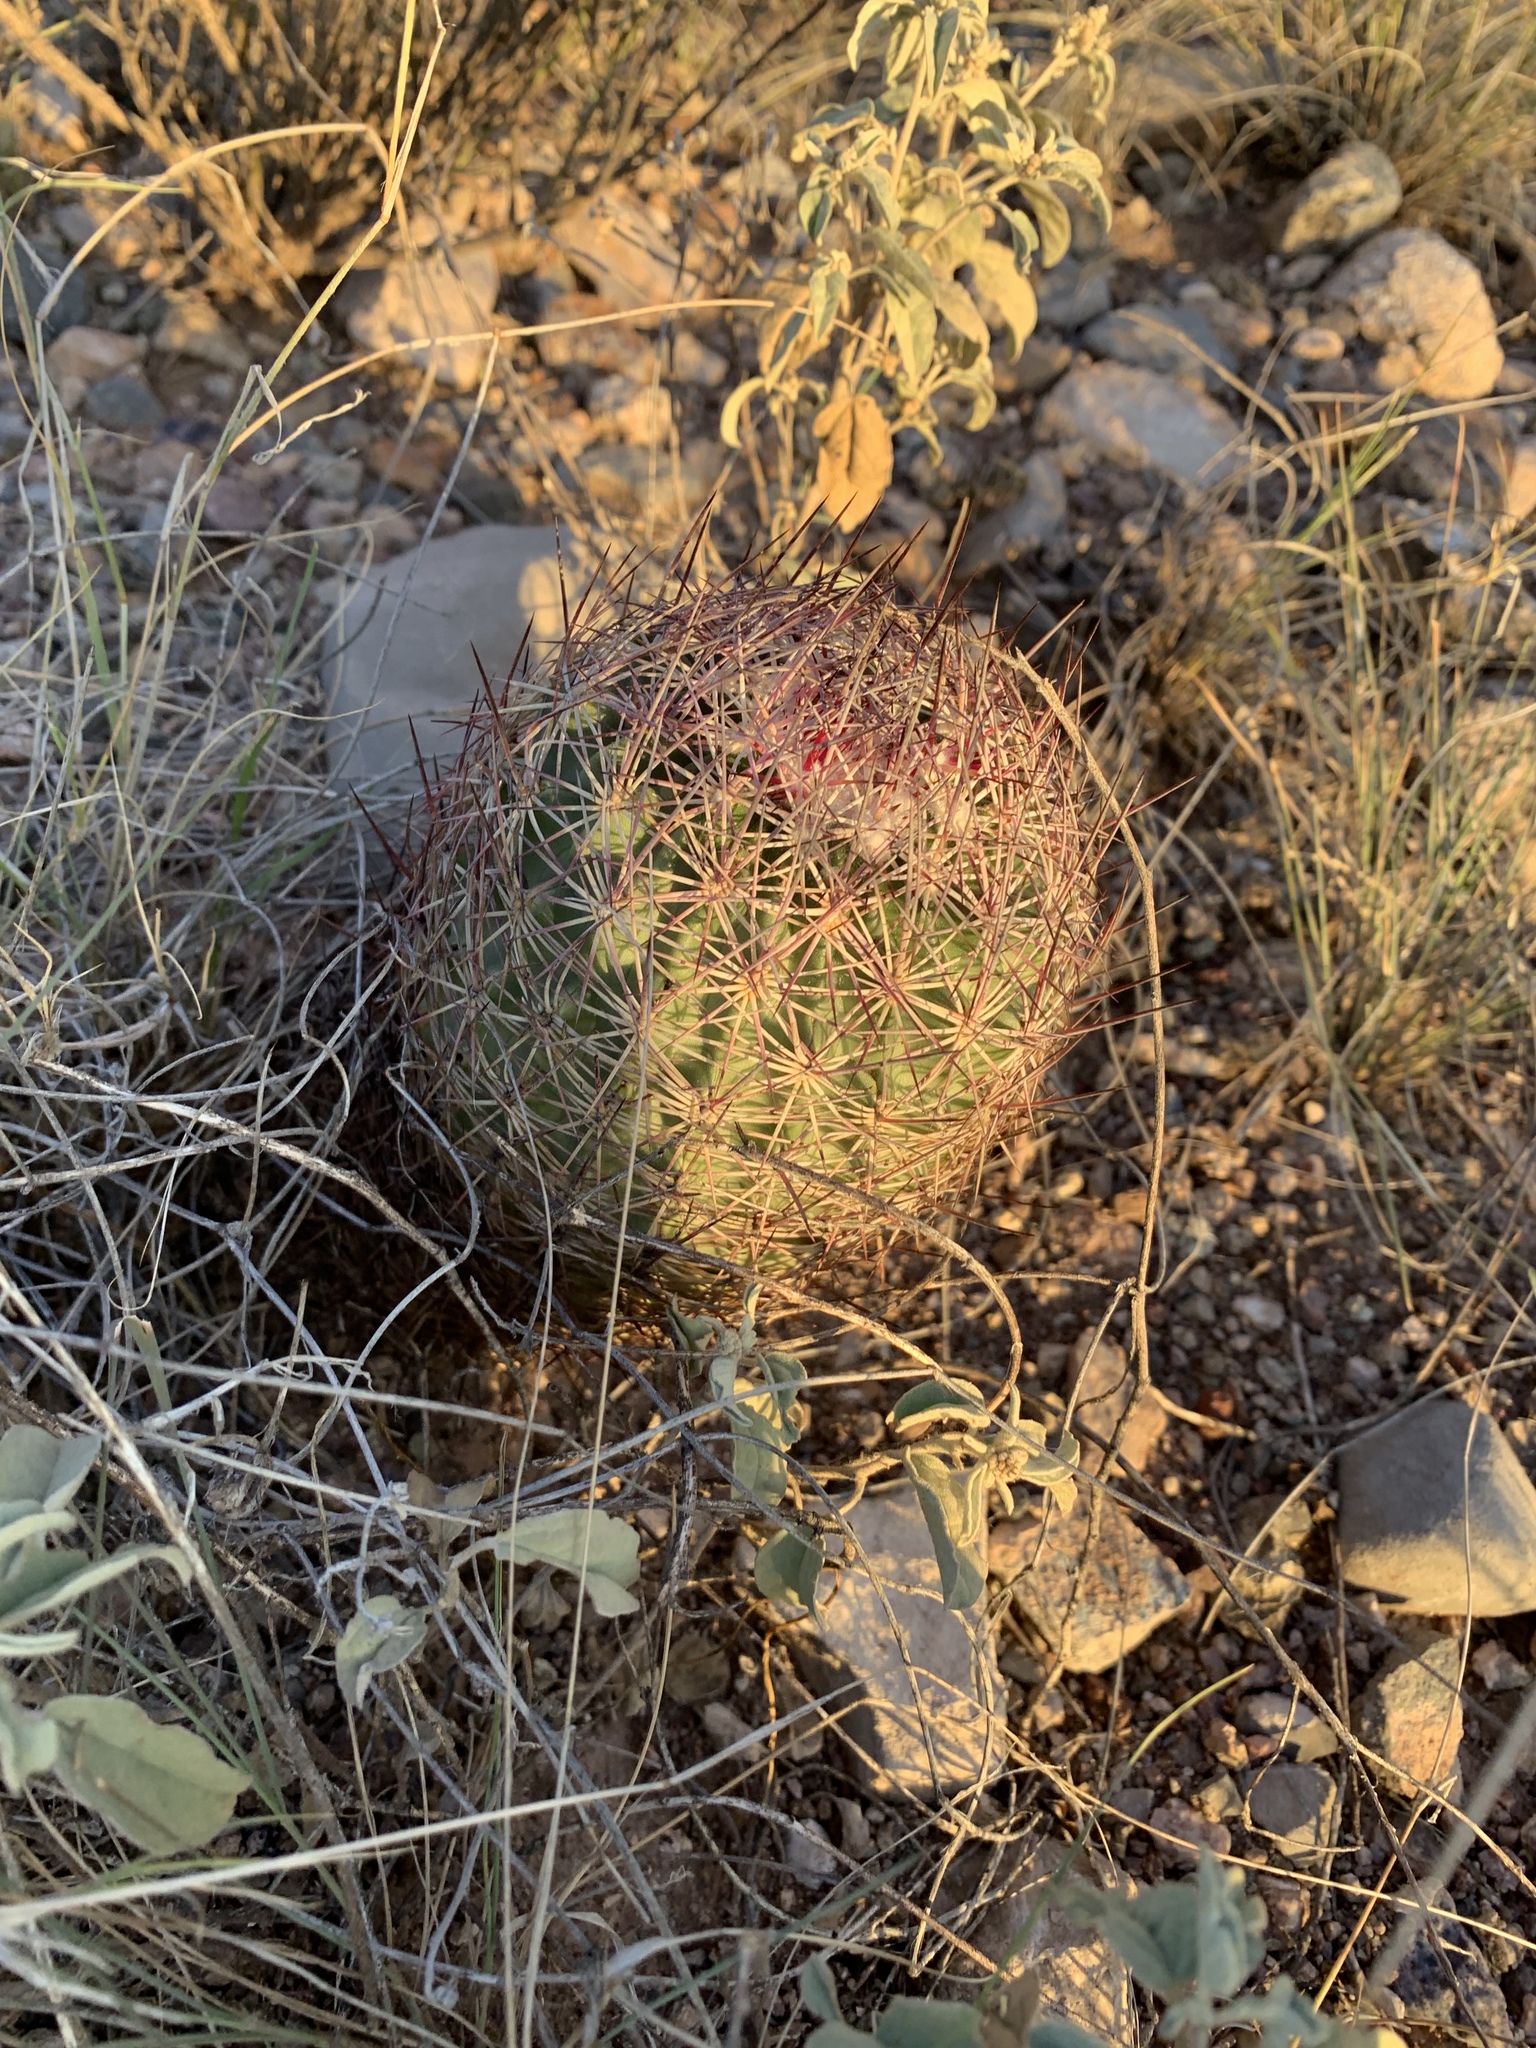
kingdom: Plantae
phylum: Tracheophyta
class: Magnoliopsida
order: Caryophyllales
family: Cactaceae
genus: Sclerocactus
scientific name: Sclerocactus johnsonii
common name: Eight-spine fishhook cactus
